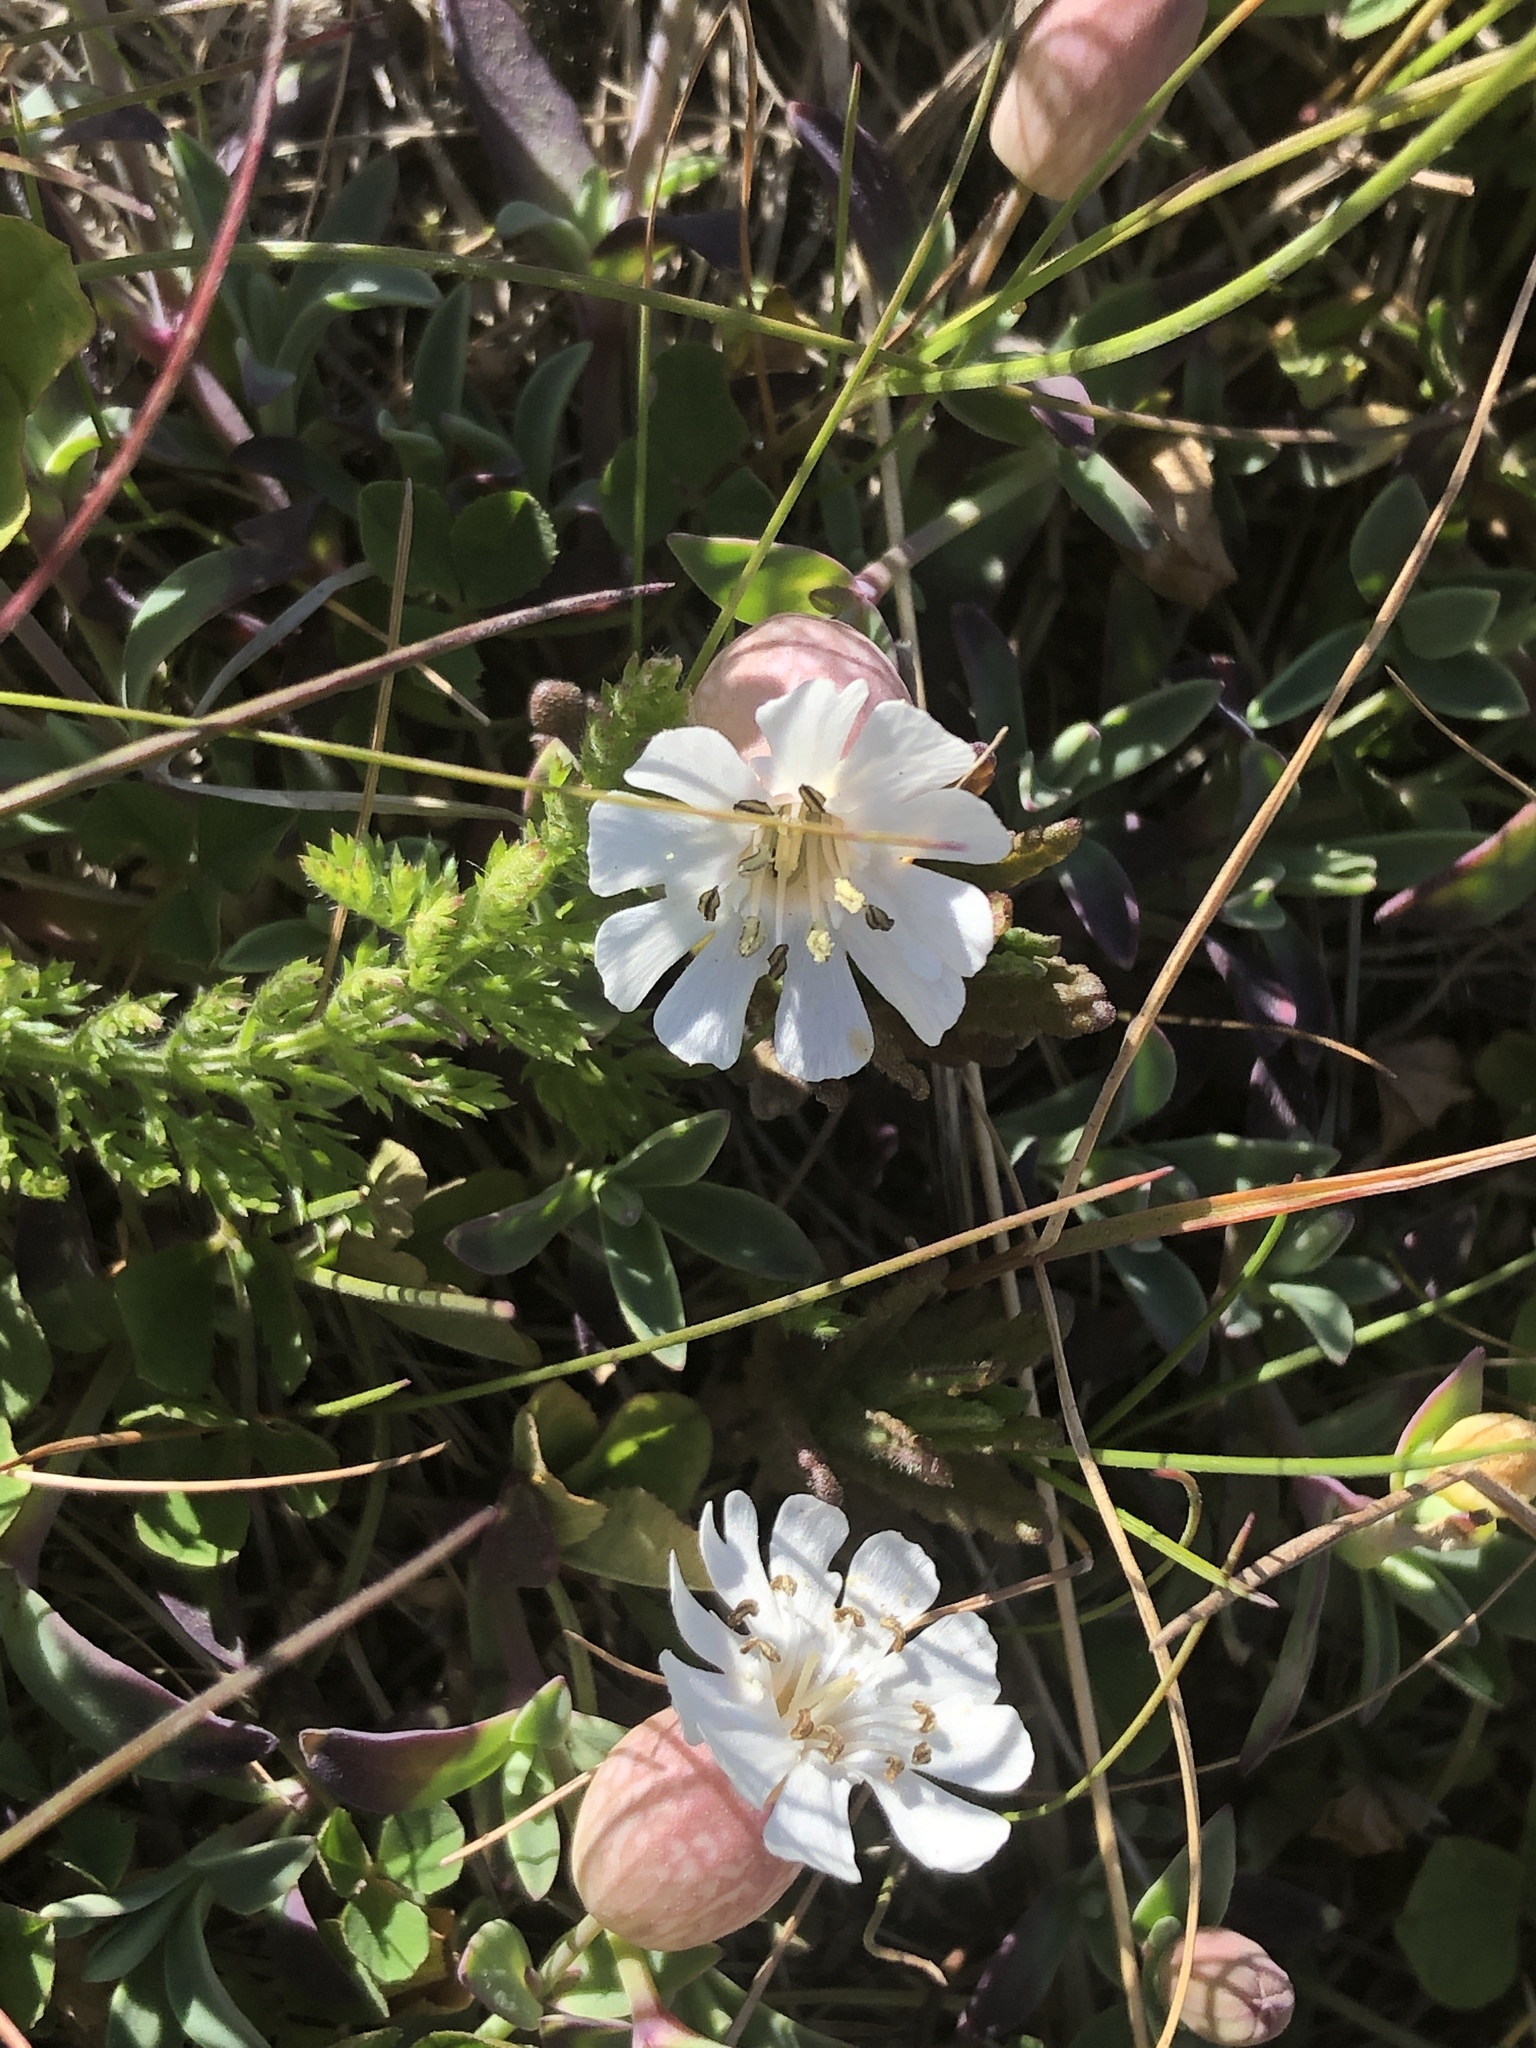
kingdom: Plantae
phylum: Tracheophyta
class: Magnoliopsida
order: Caryophyllales
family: Caryophyllaceae
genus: Silene
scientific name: Silene uniflora
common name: Sea campion
